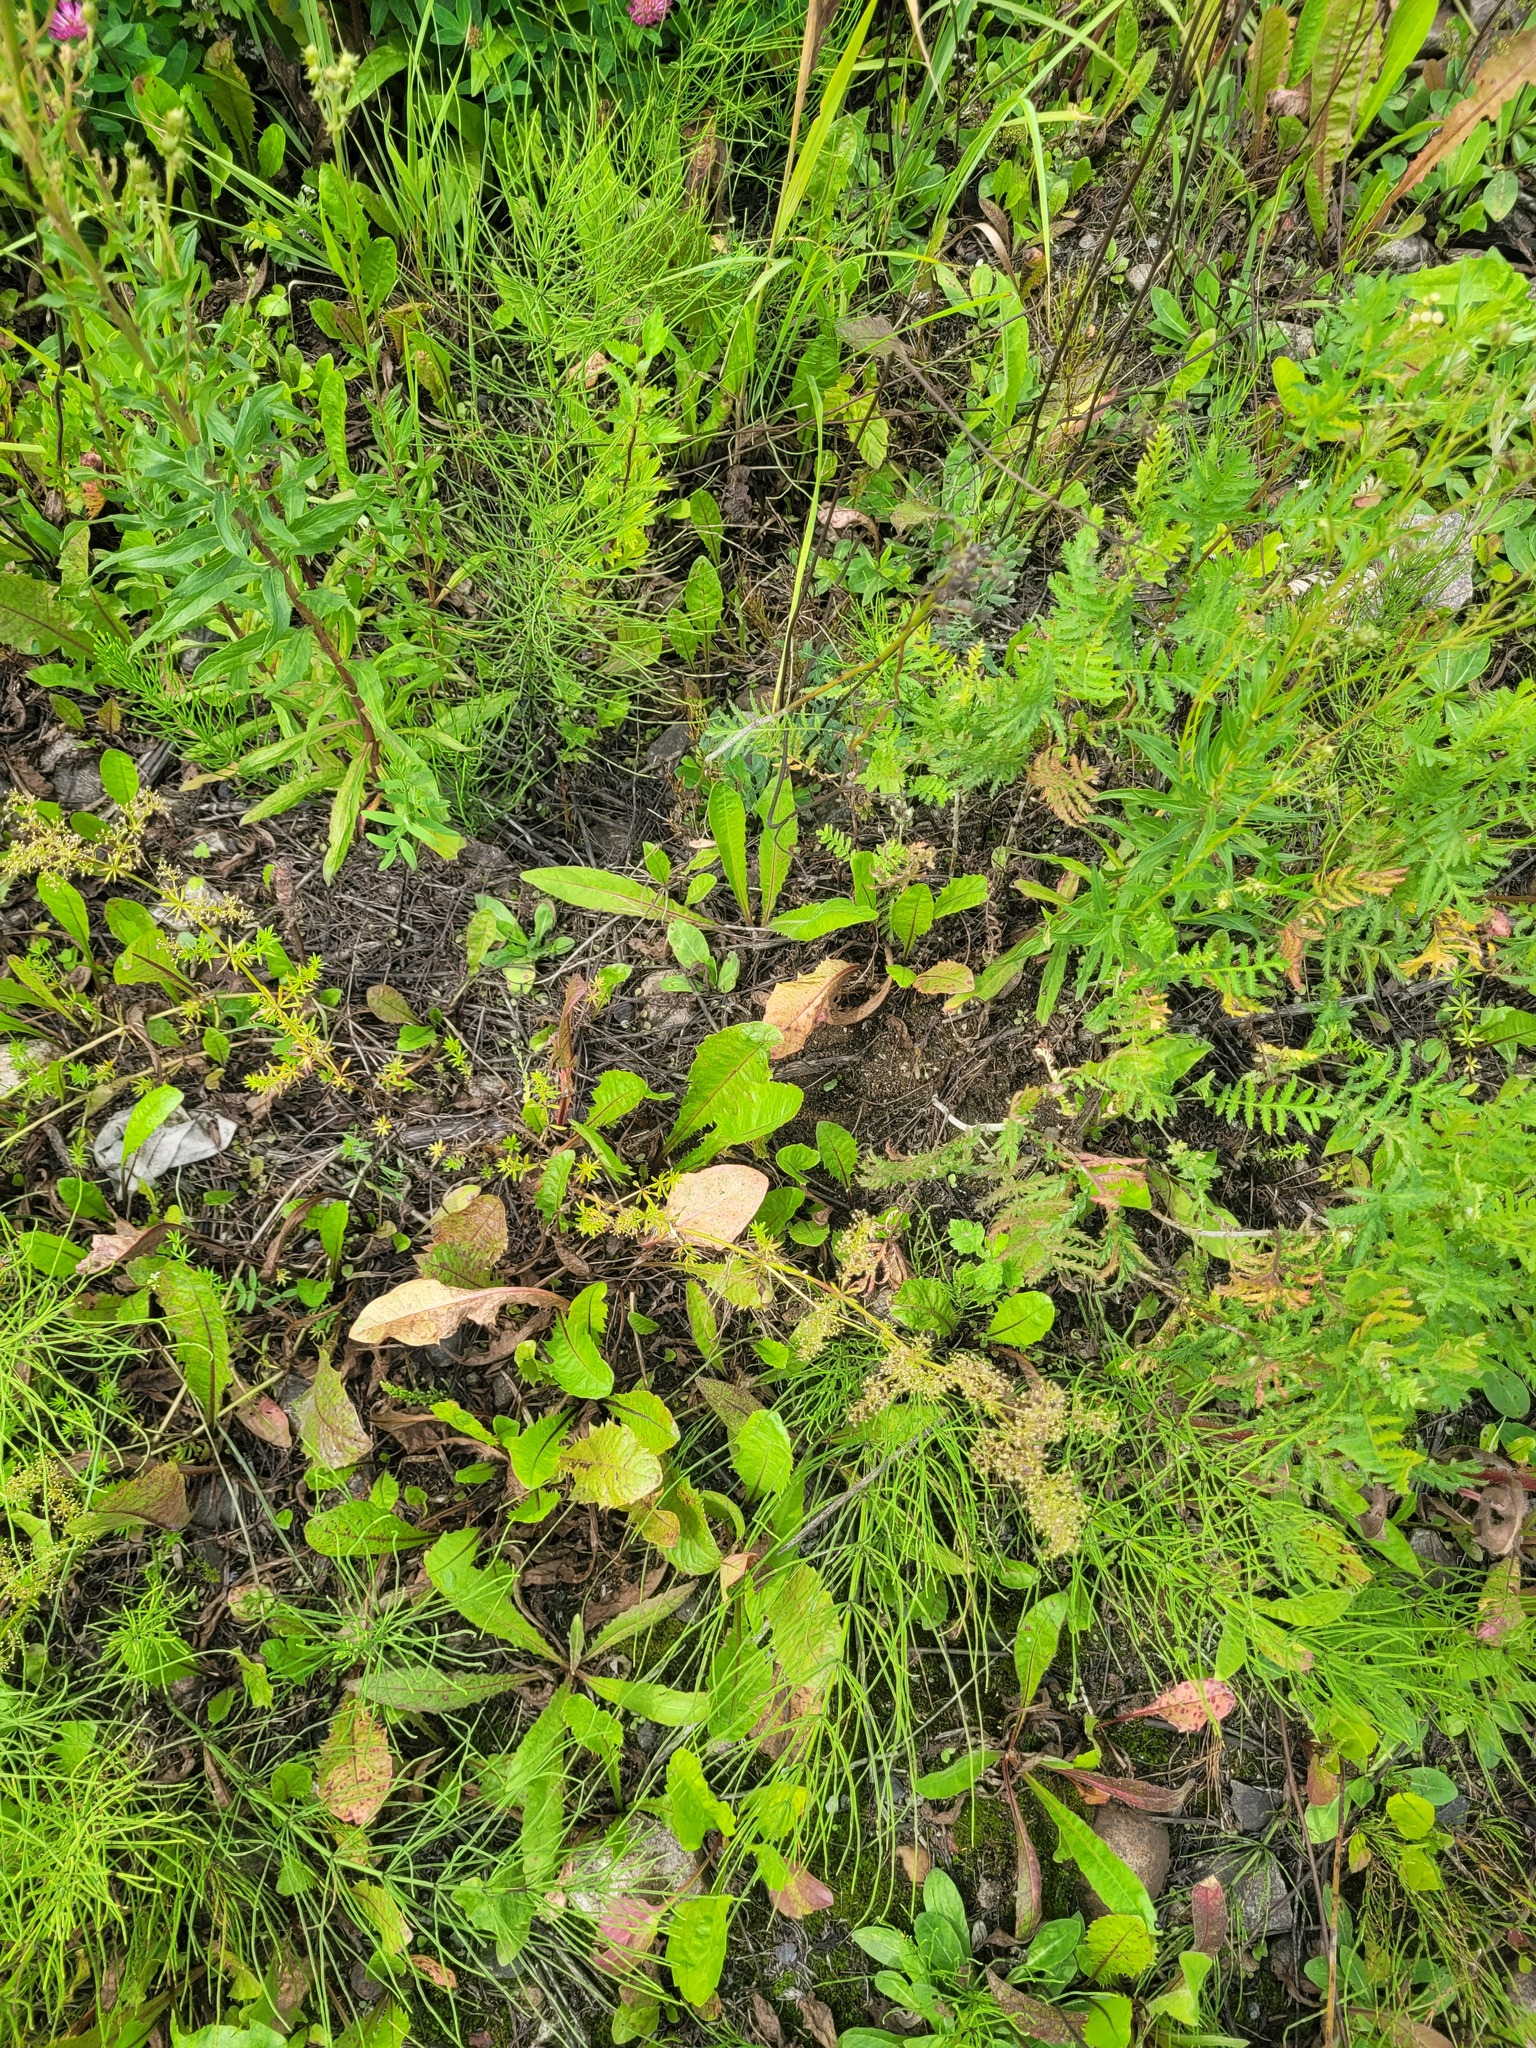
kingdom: Plantae
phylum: Tracheophyta
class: Magnoliopsida
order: Gentianales
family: Rubiaceae
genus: Galium
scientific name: Galium mollugo
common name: Hedge bedstraw
